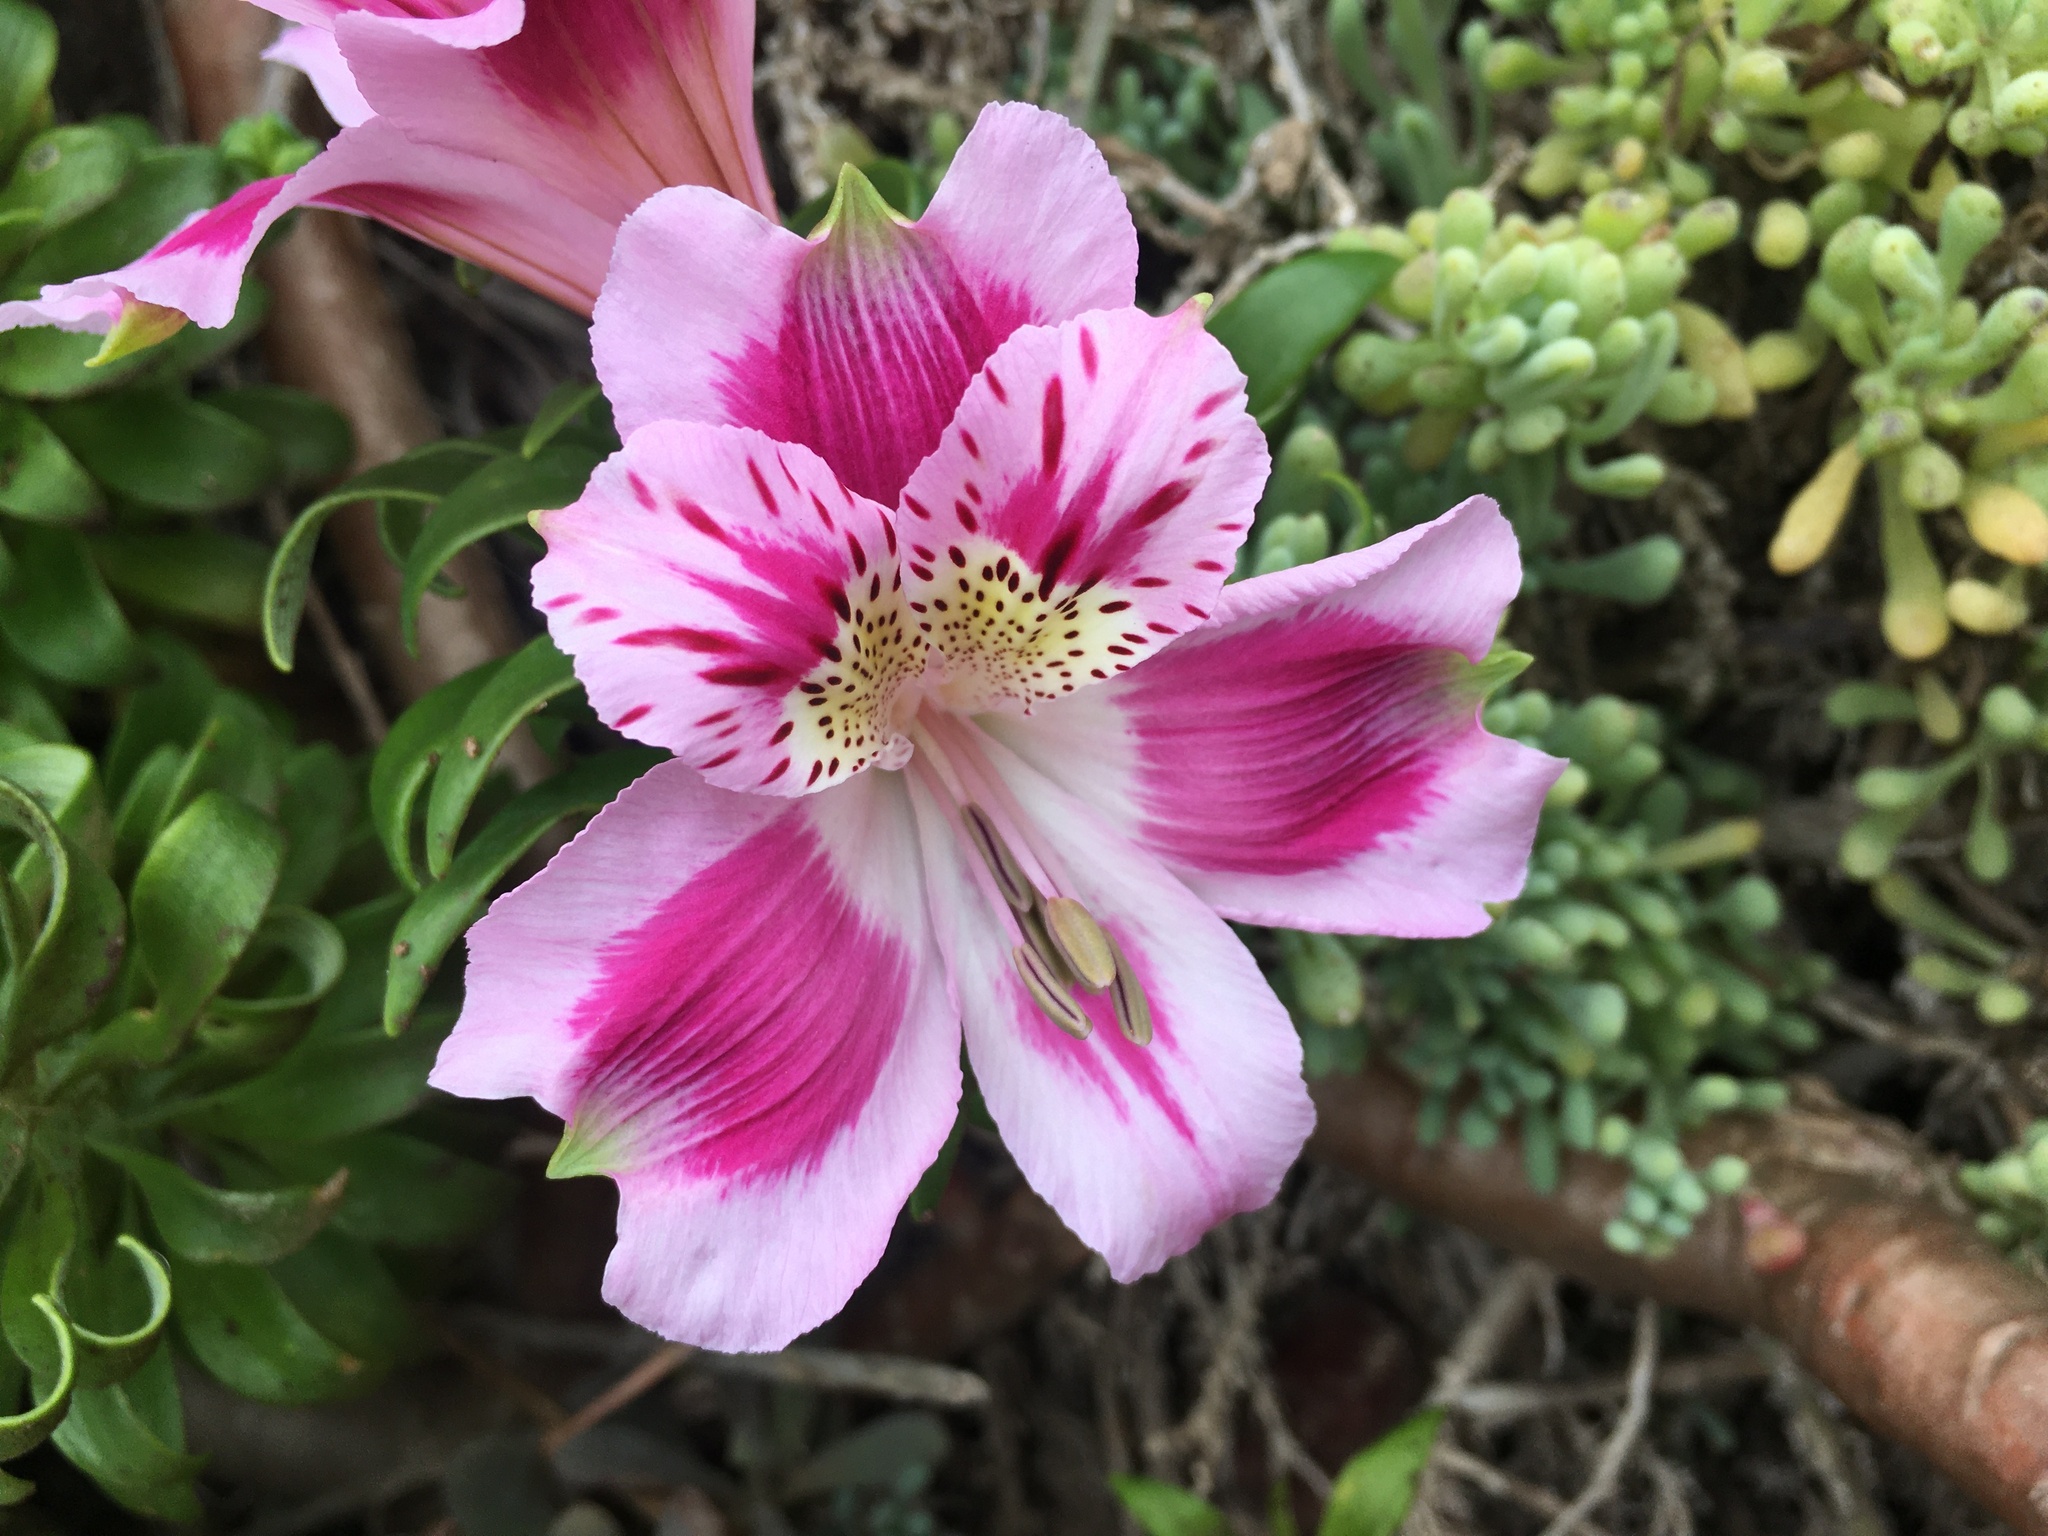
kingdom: Plantae
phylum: Tracheophyta
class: Liliopsida
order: Liliales
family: Alstroemeriaceae
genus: Alstroemeria
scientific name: Alstroemeria pelegrina
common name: Peruvian-lily
